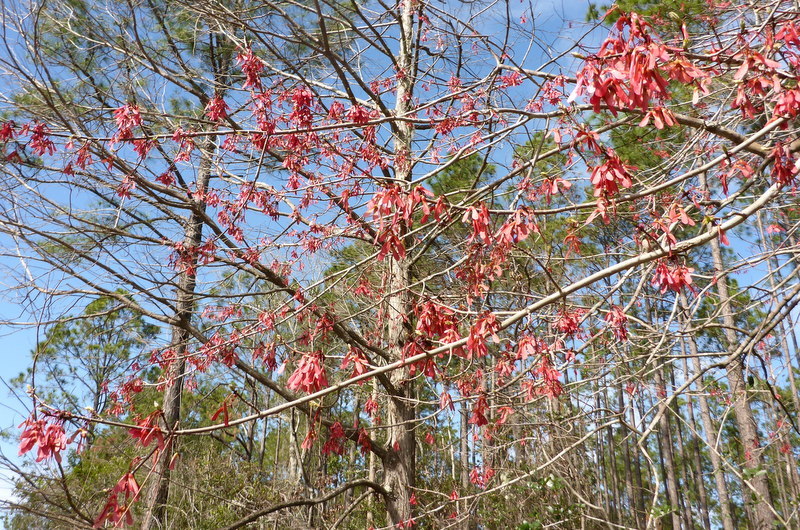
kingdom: Plantae
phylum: Tracheophyta
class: Magnoliopsida
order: Sapindales
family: Sapindaceae
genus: Acer
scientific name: Acer rubrum
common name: Red maple
